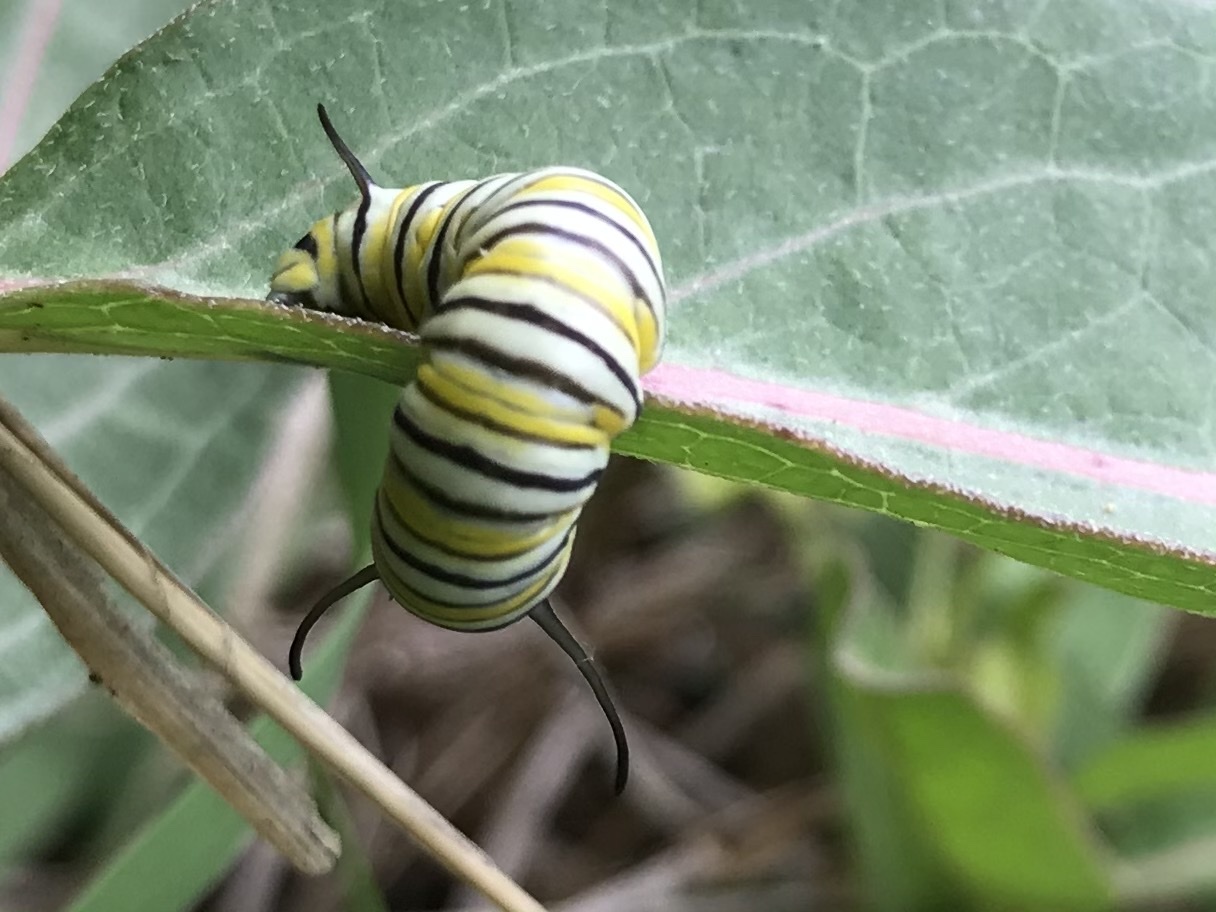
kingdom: Animalia
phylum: Arthropoda
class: Insecta
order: Lepidoptera
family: Nymphalidae
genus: Danaus
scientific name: Danaus plexippus
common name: Monarch
